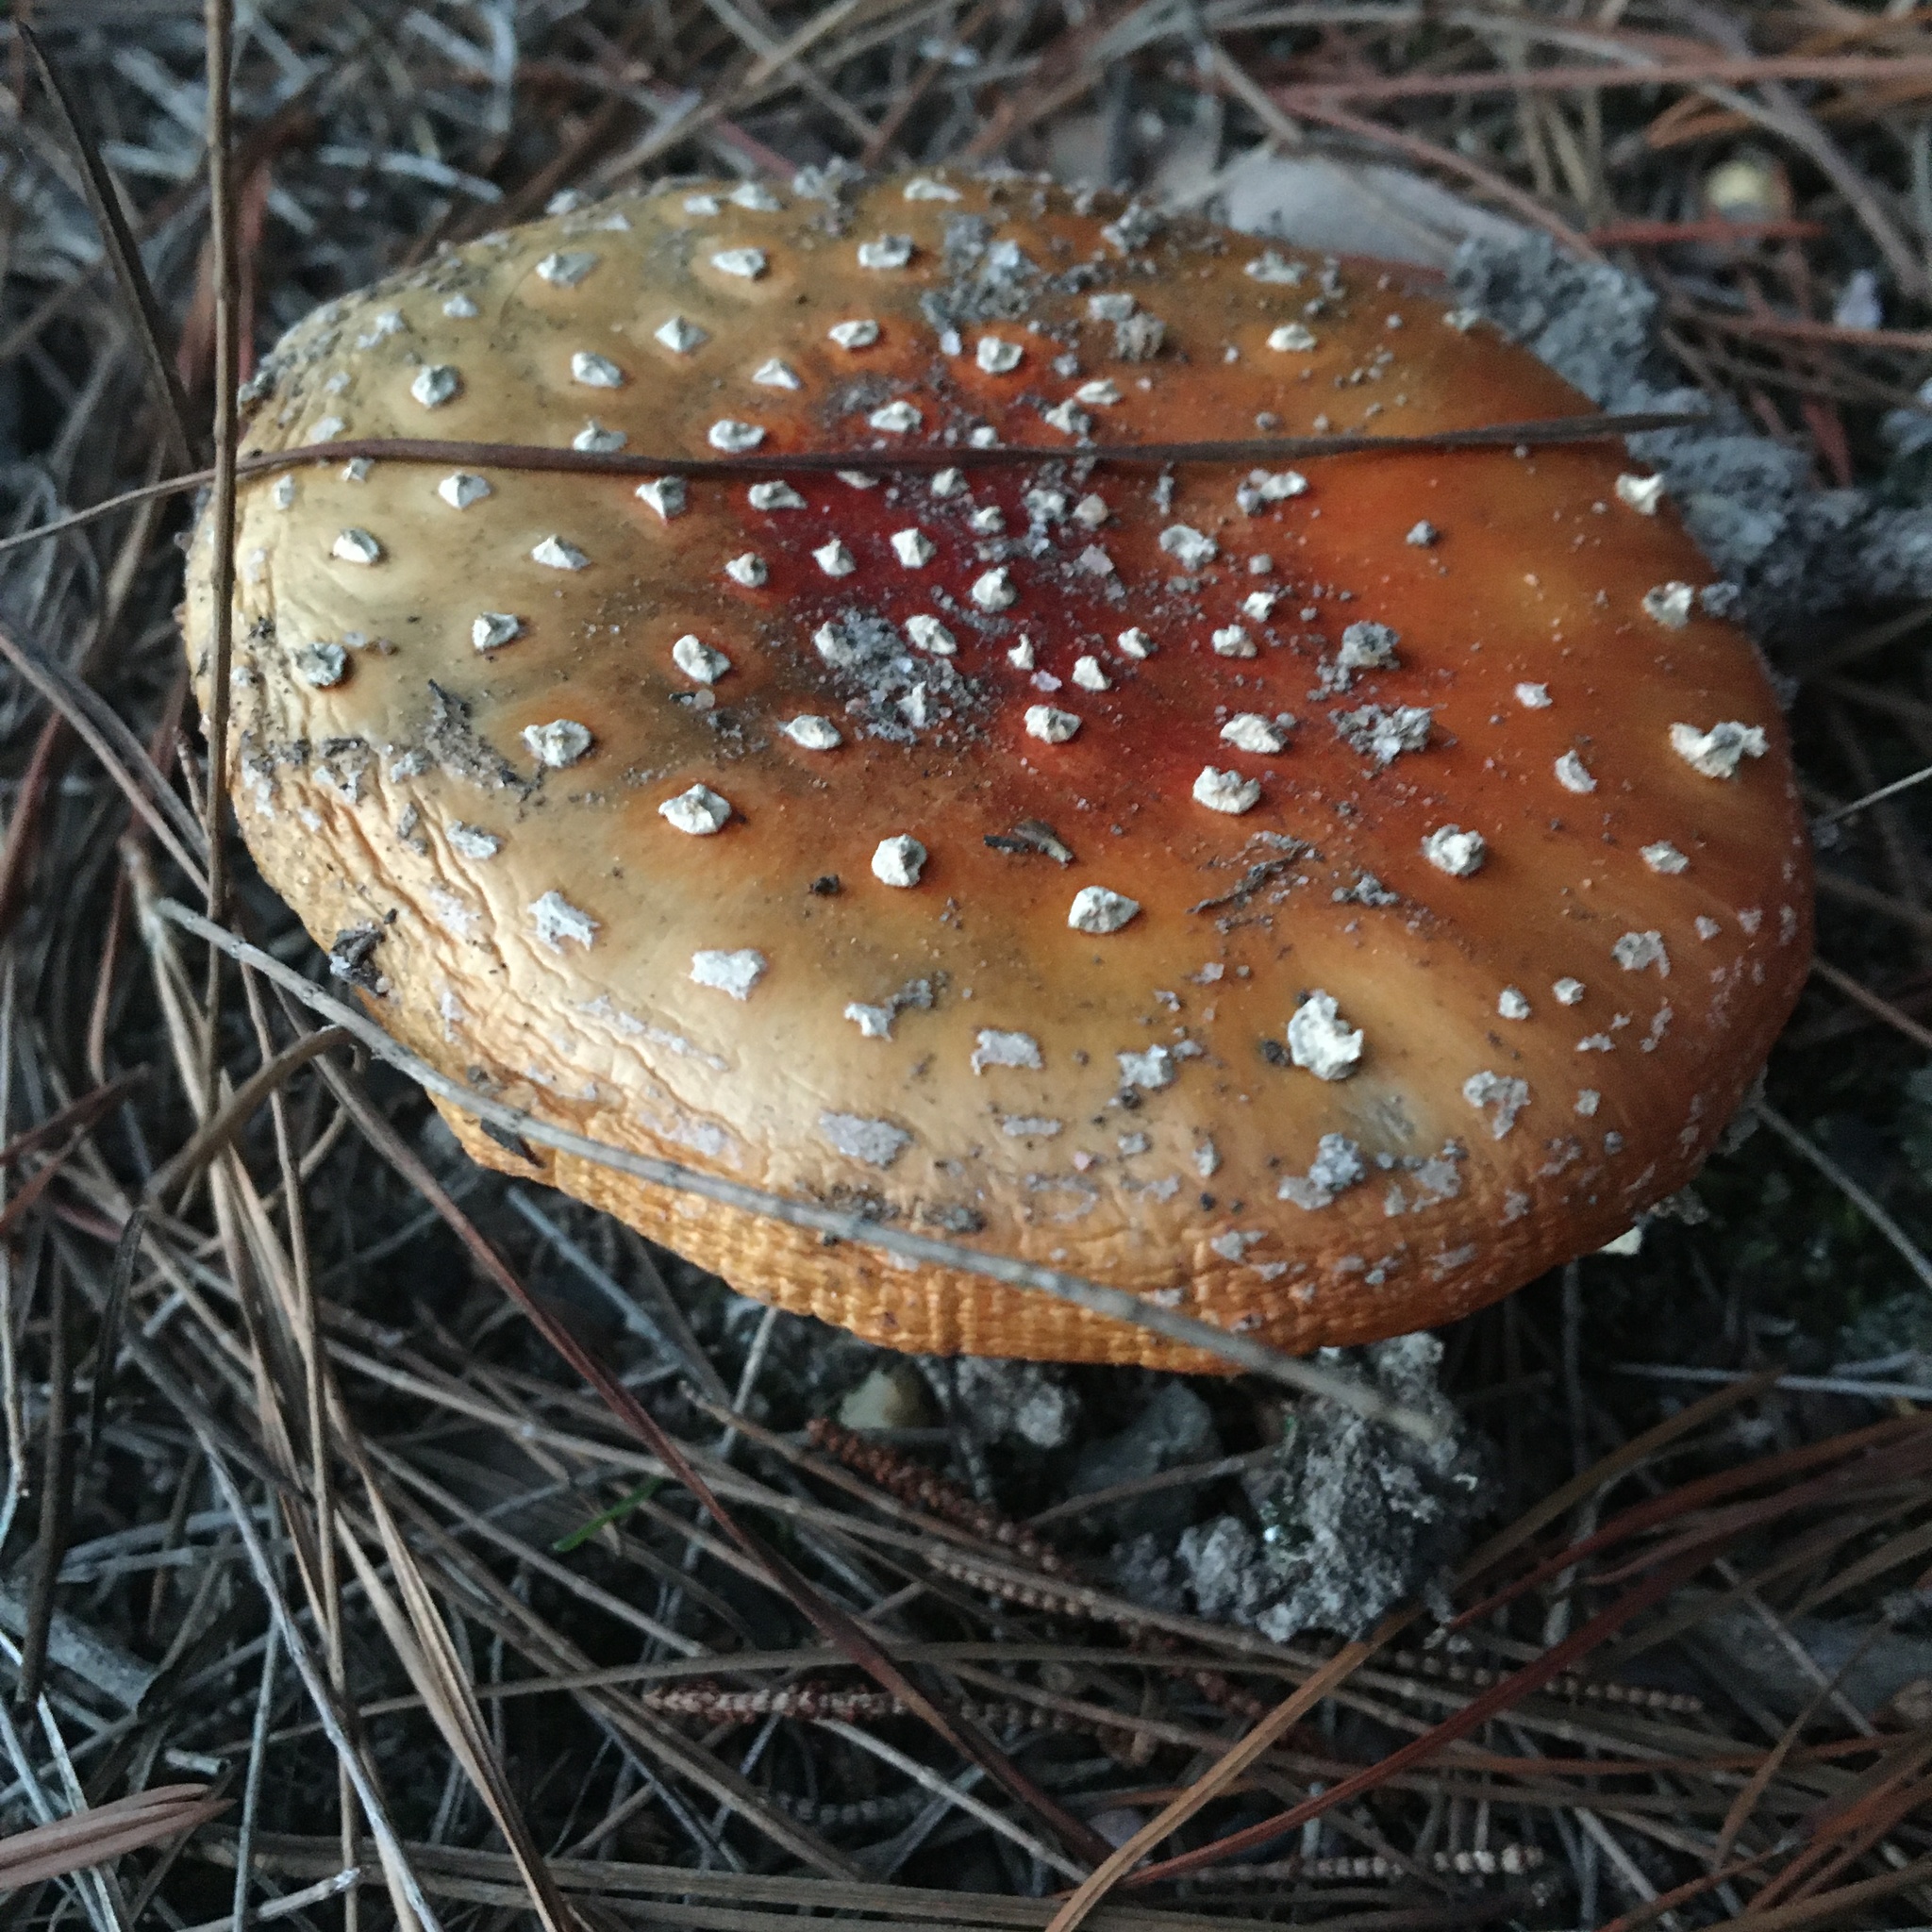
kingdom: Fungi
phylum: Basidiomycota
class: Agaricomycetes
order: Agaricales
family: Amanitaceae
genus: Amanita
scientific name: Amanita muscaria
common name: Fly agaric
